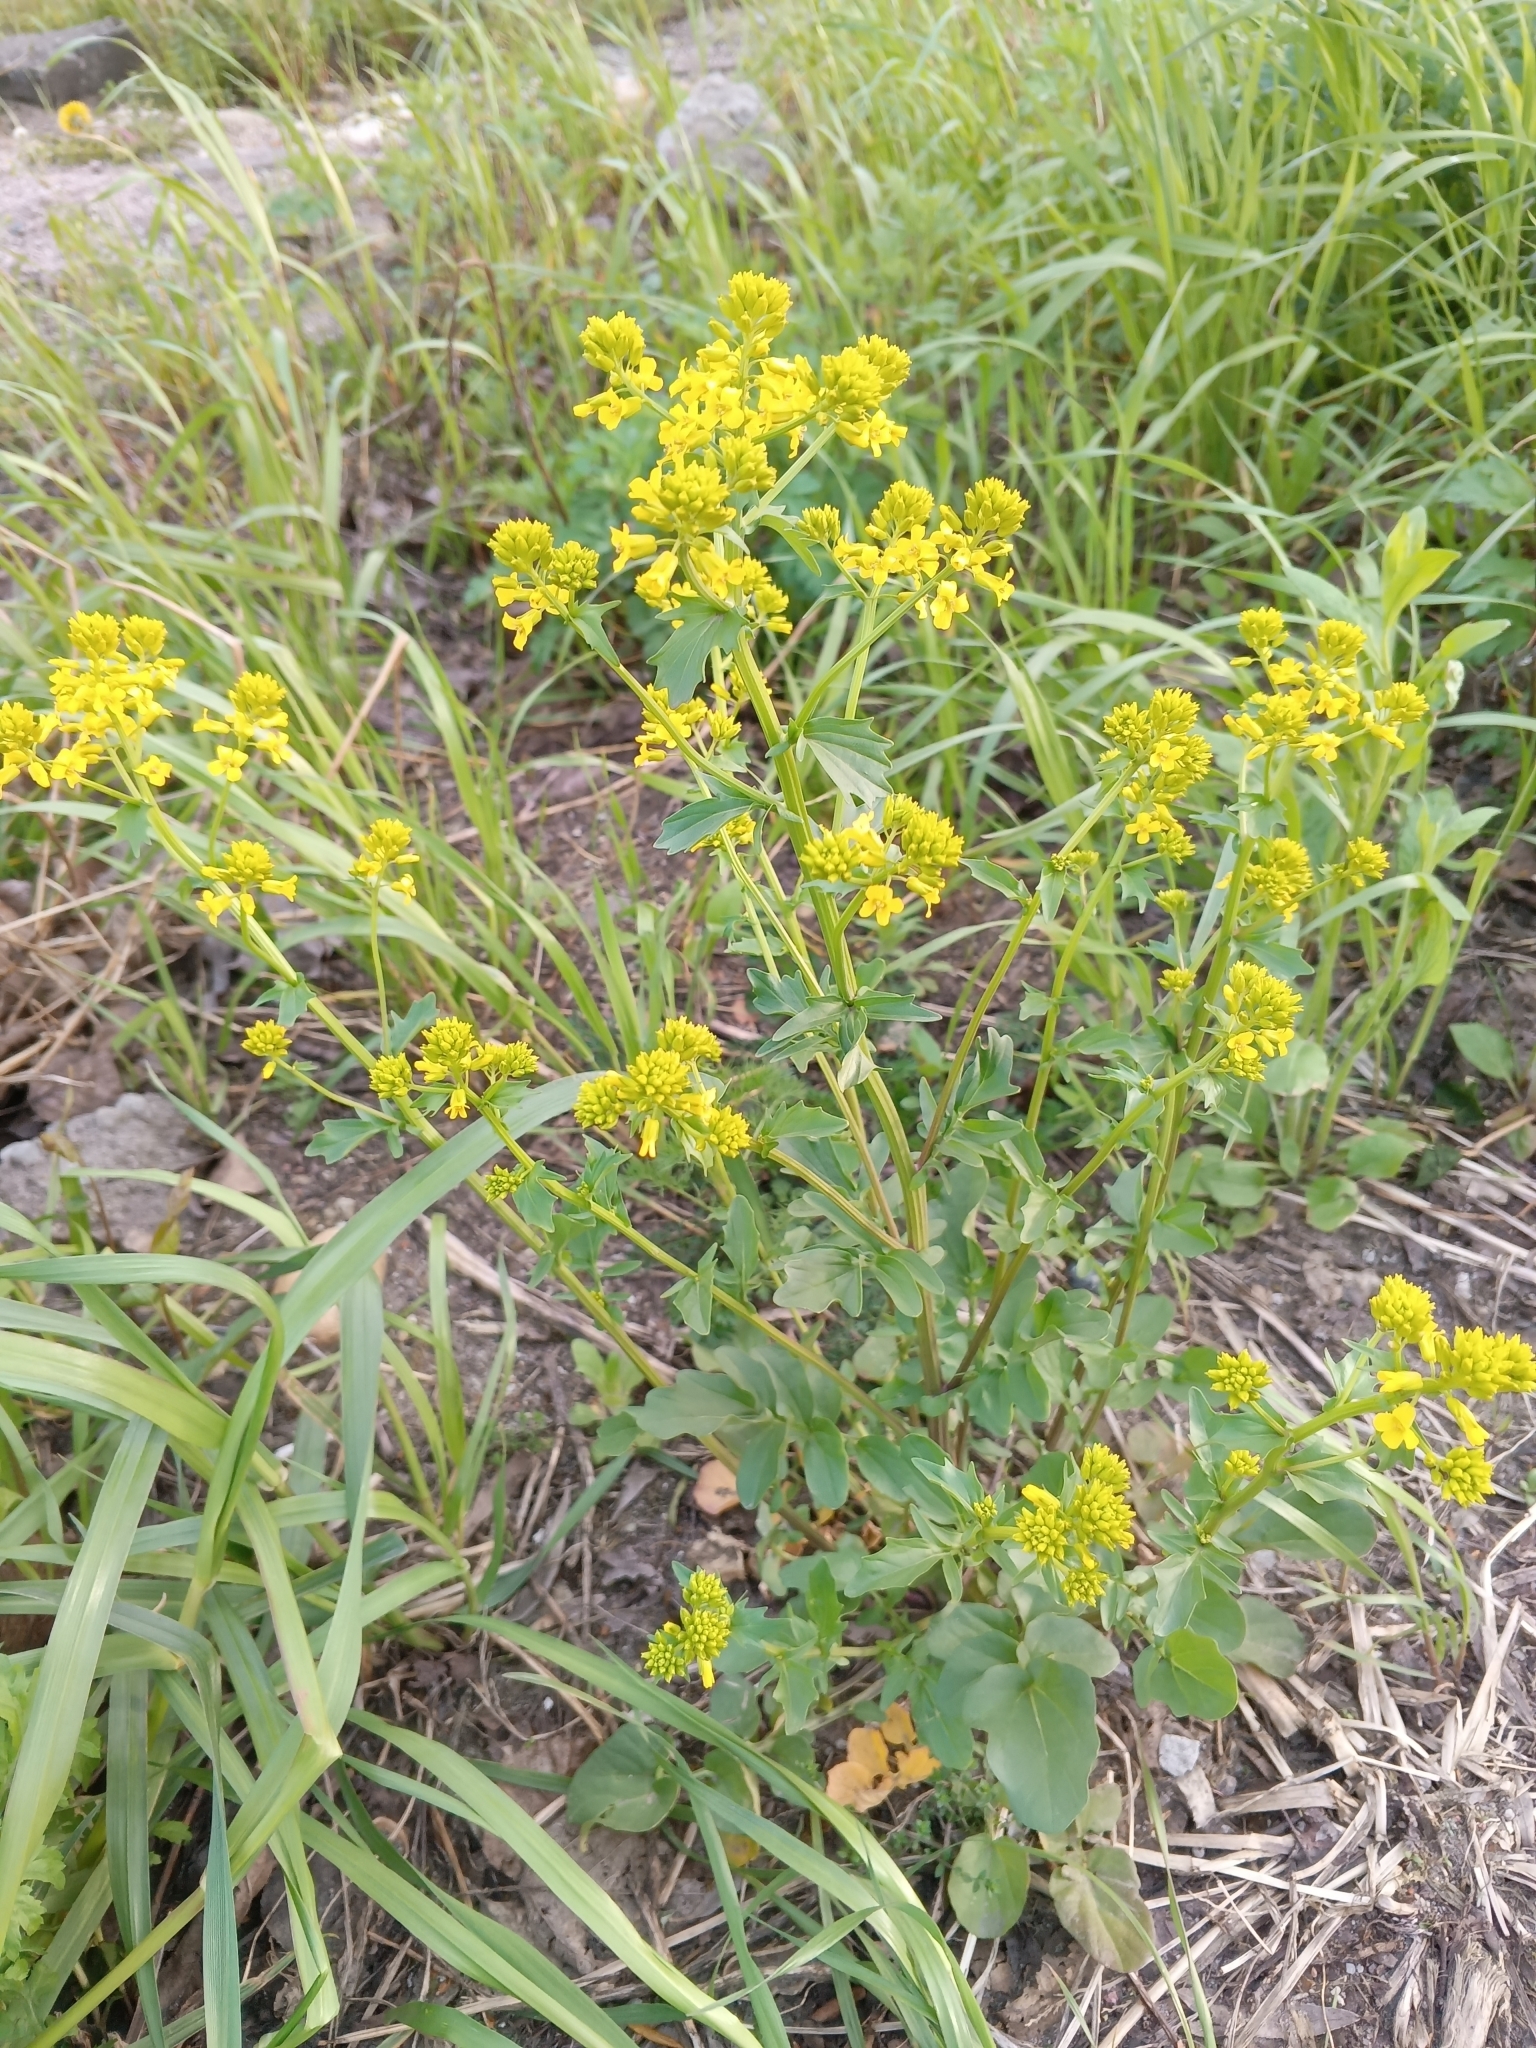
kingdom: Plantae
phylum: Tracheophyta
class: Magnoliopsida
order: Brassicales
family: Brassicaceae
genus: Barbarea
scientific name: Barbarea vulgaris
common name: Cressy-greens
